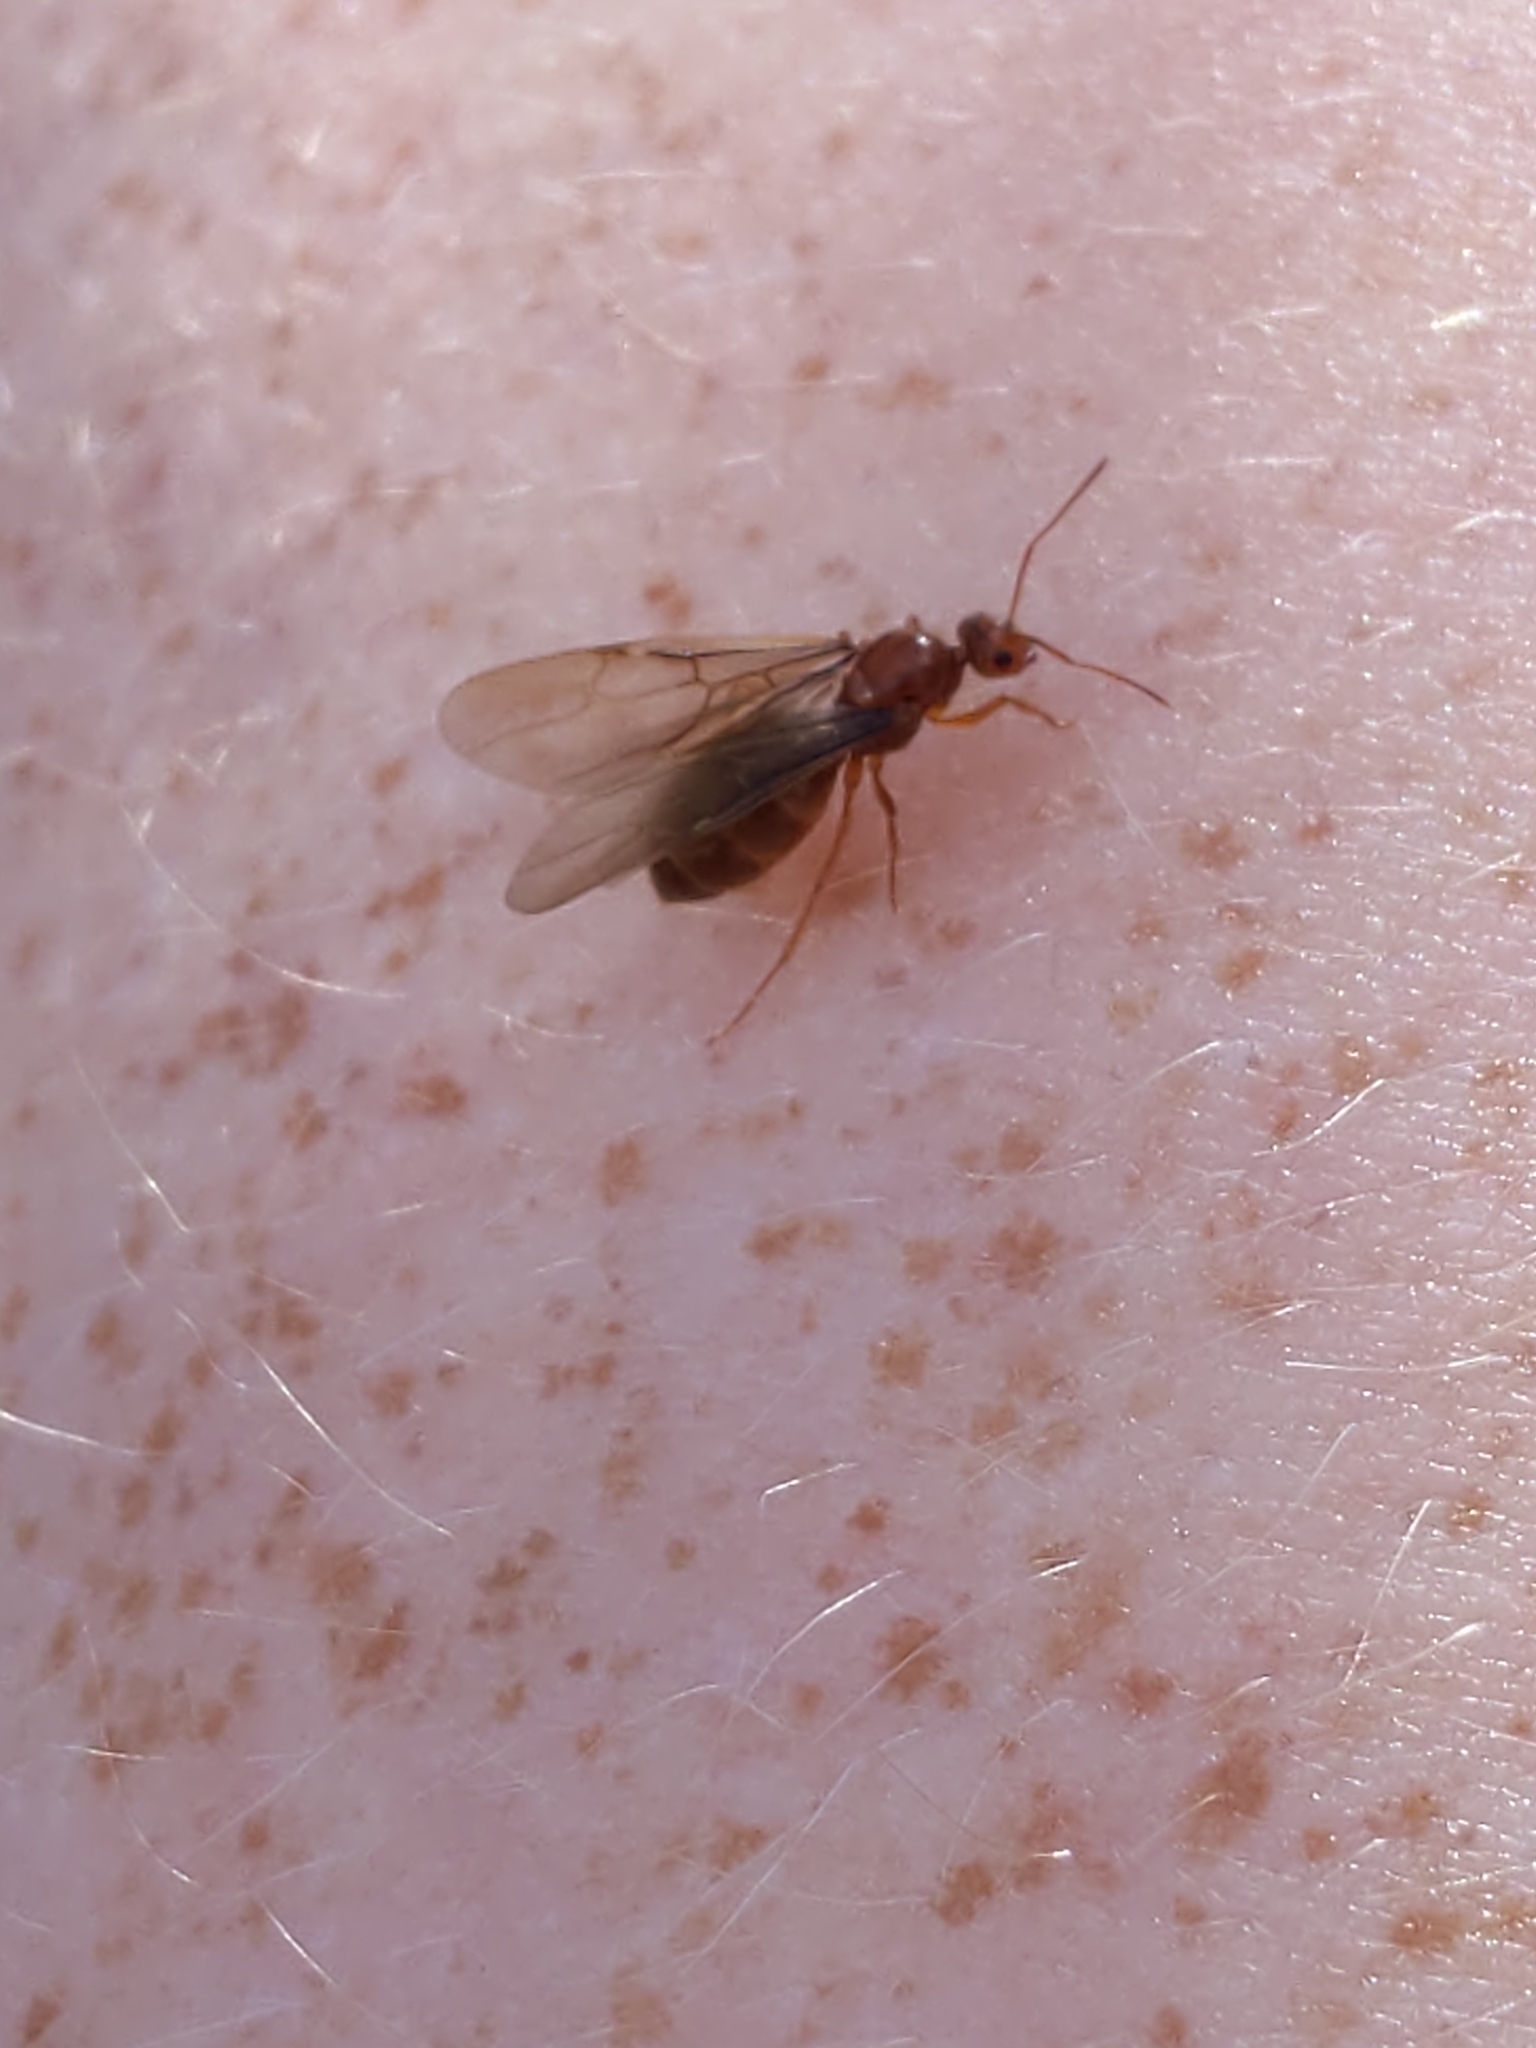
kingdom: Animalia
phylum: Arthropoda
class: Insecta
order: Hymenoptera
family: Formicidae
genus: Prenolepis
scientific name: Prenolepis imparis
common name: Small honey ant
